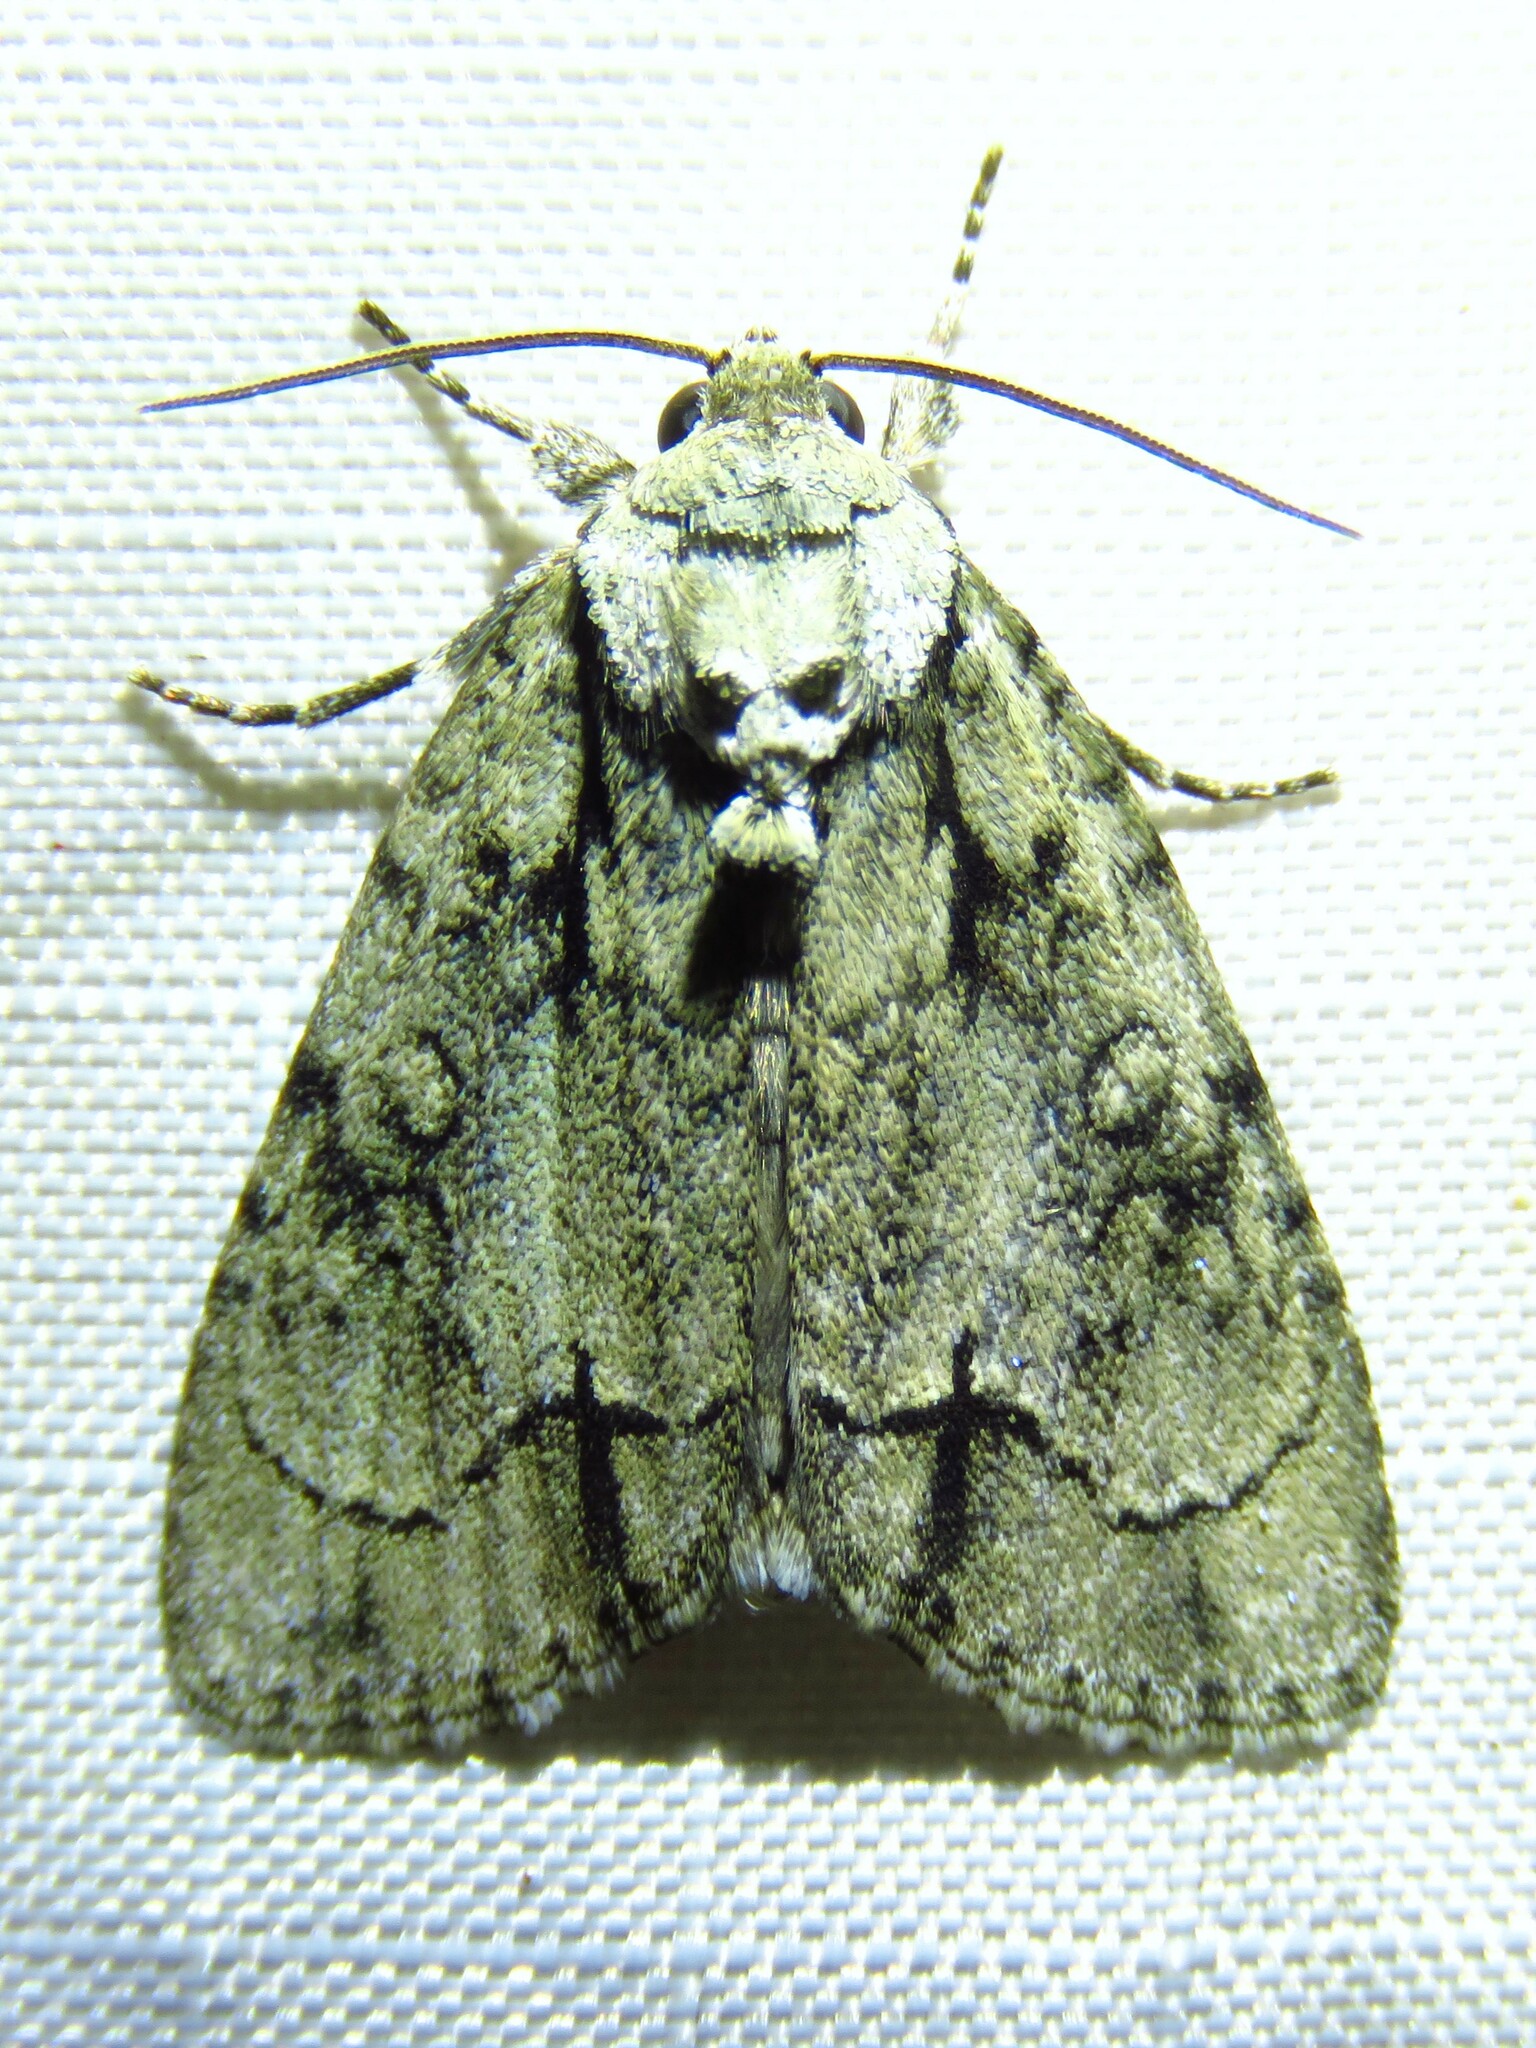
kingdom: Animalia
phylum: Arthropoda
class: Insecta
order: Lepidoptera
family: Noctuidae
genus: Acronicta
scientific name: Acronicta vinnula
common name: Delightful dagger
